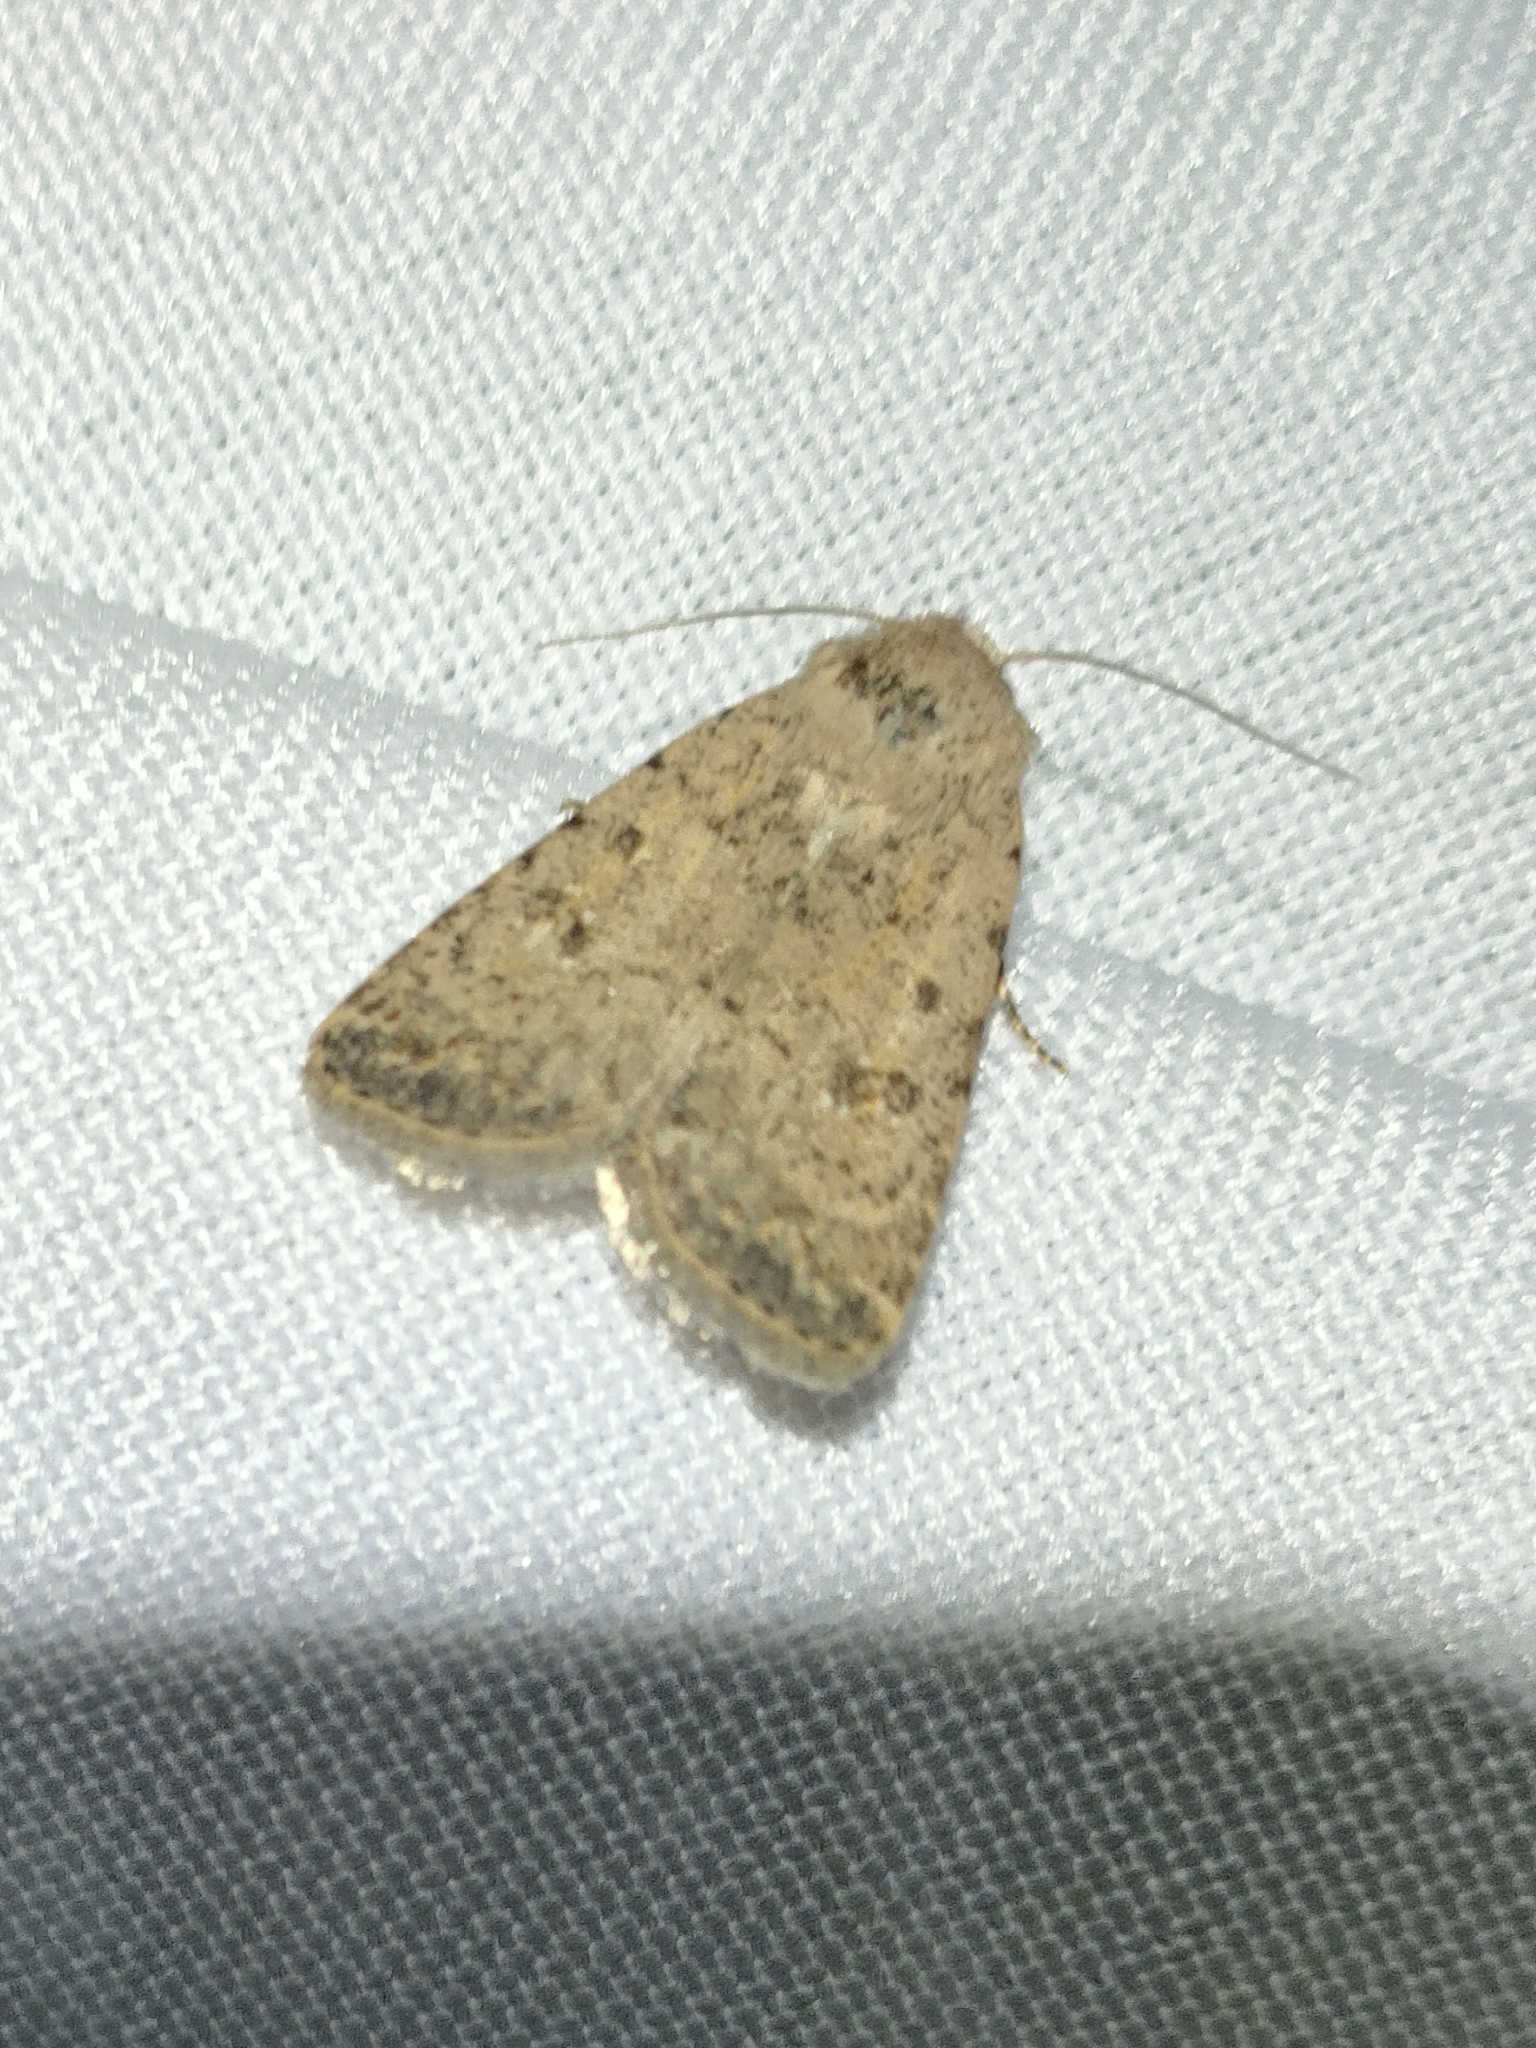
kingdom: Animalia
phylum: Arthropoda
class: Insecta
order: Lepidoptera
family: Noctuidae
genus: Caradrina
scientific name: Caradrina clavipalpis
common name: Pale mottled willow
